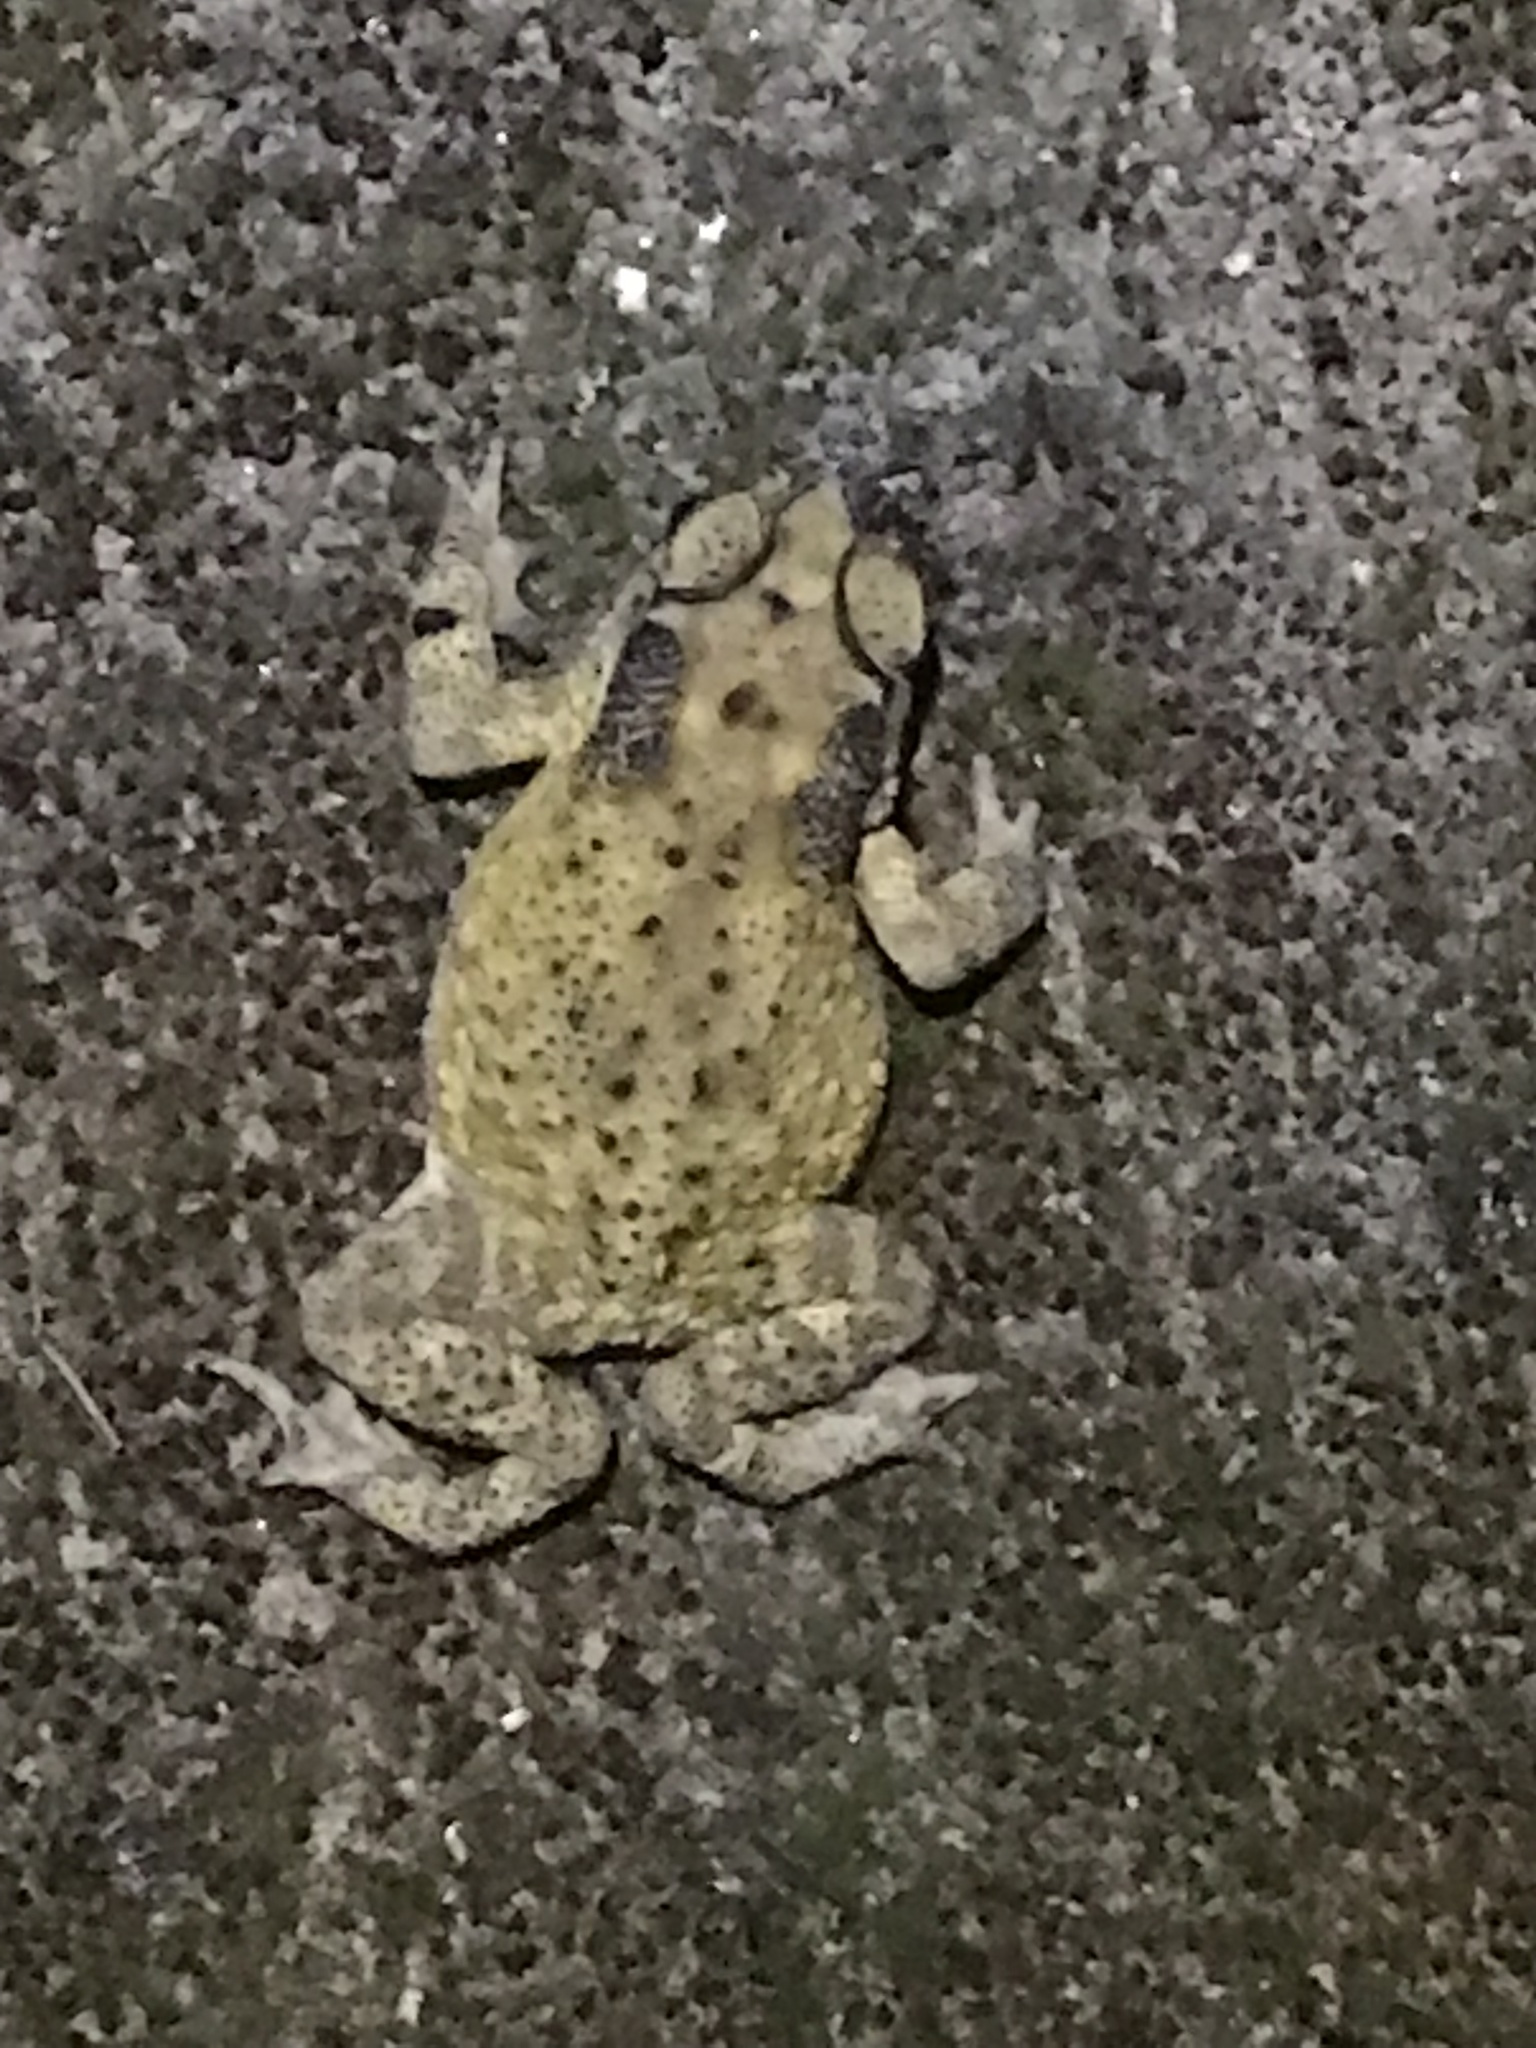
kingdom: Animalia
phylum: Chordata
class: Amphibia
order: Anura
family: Bufonidae
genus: Duttaphrynus
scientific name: Duttaphrynus melanostictus
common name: Common sunda toad
